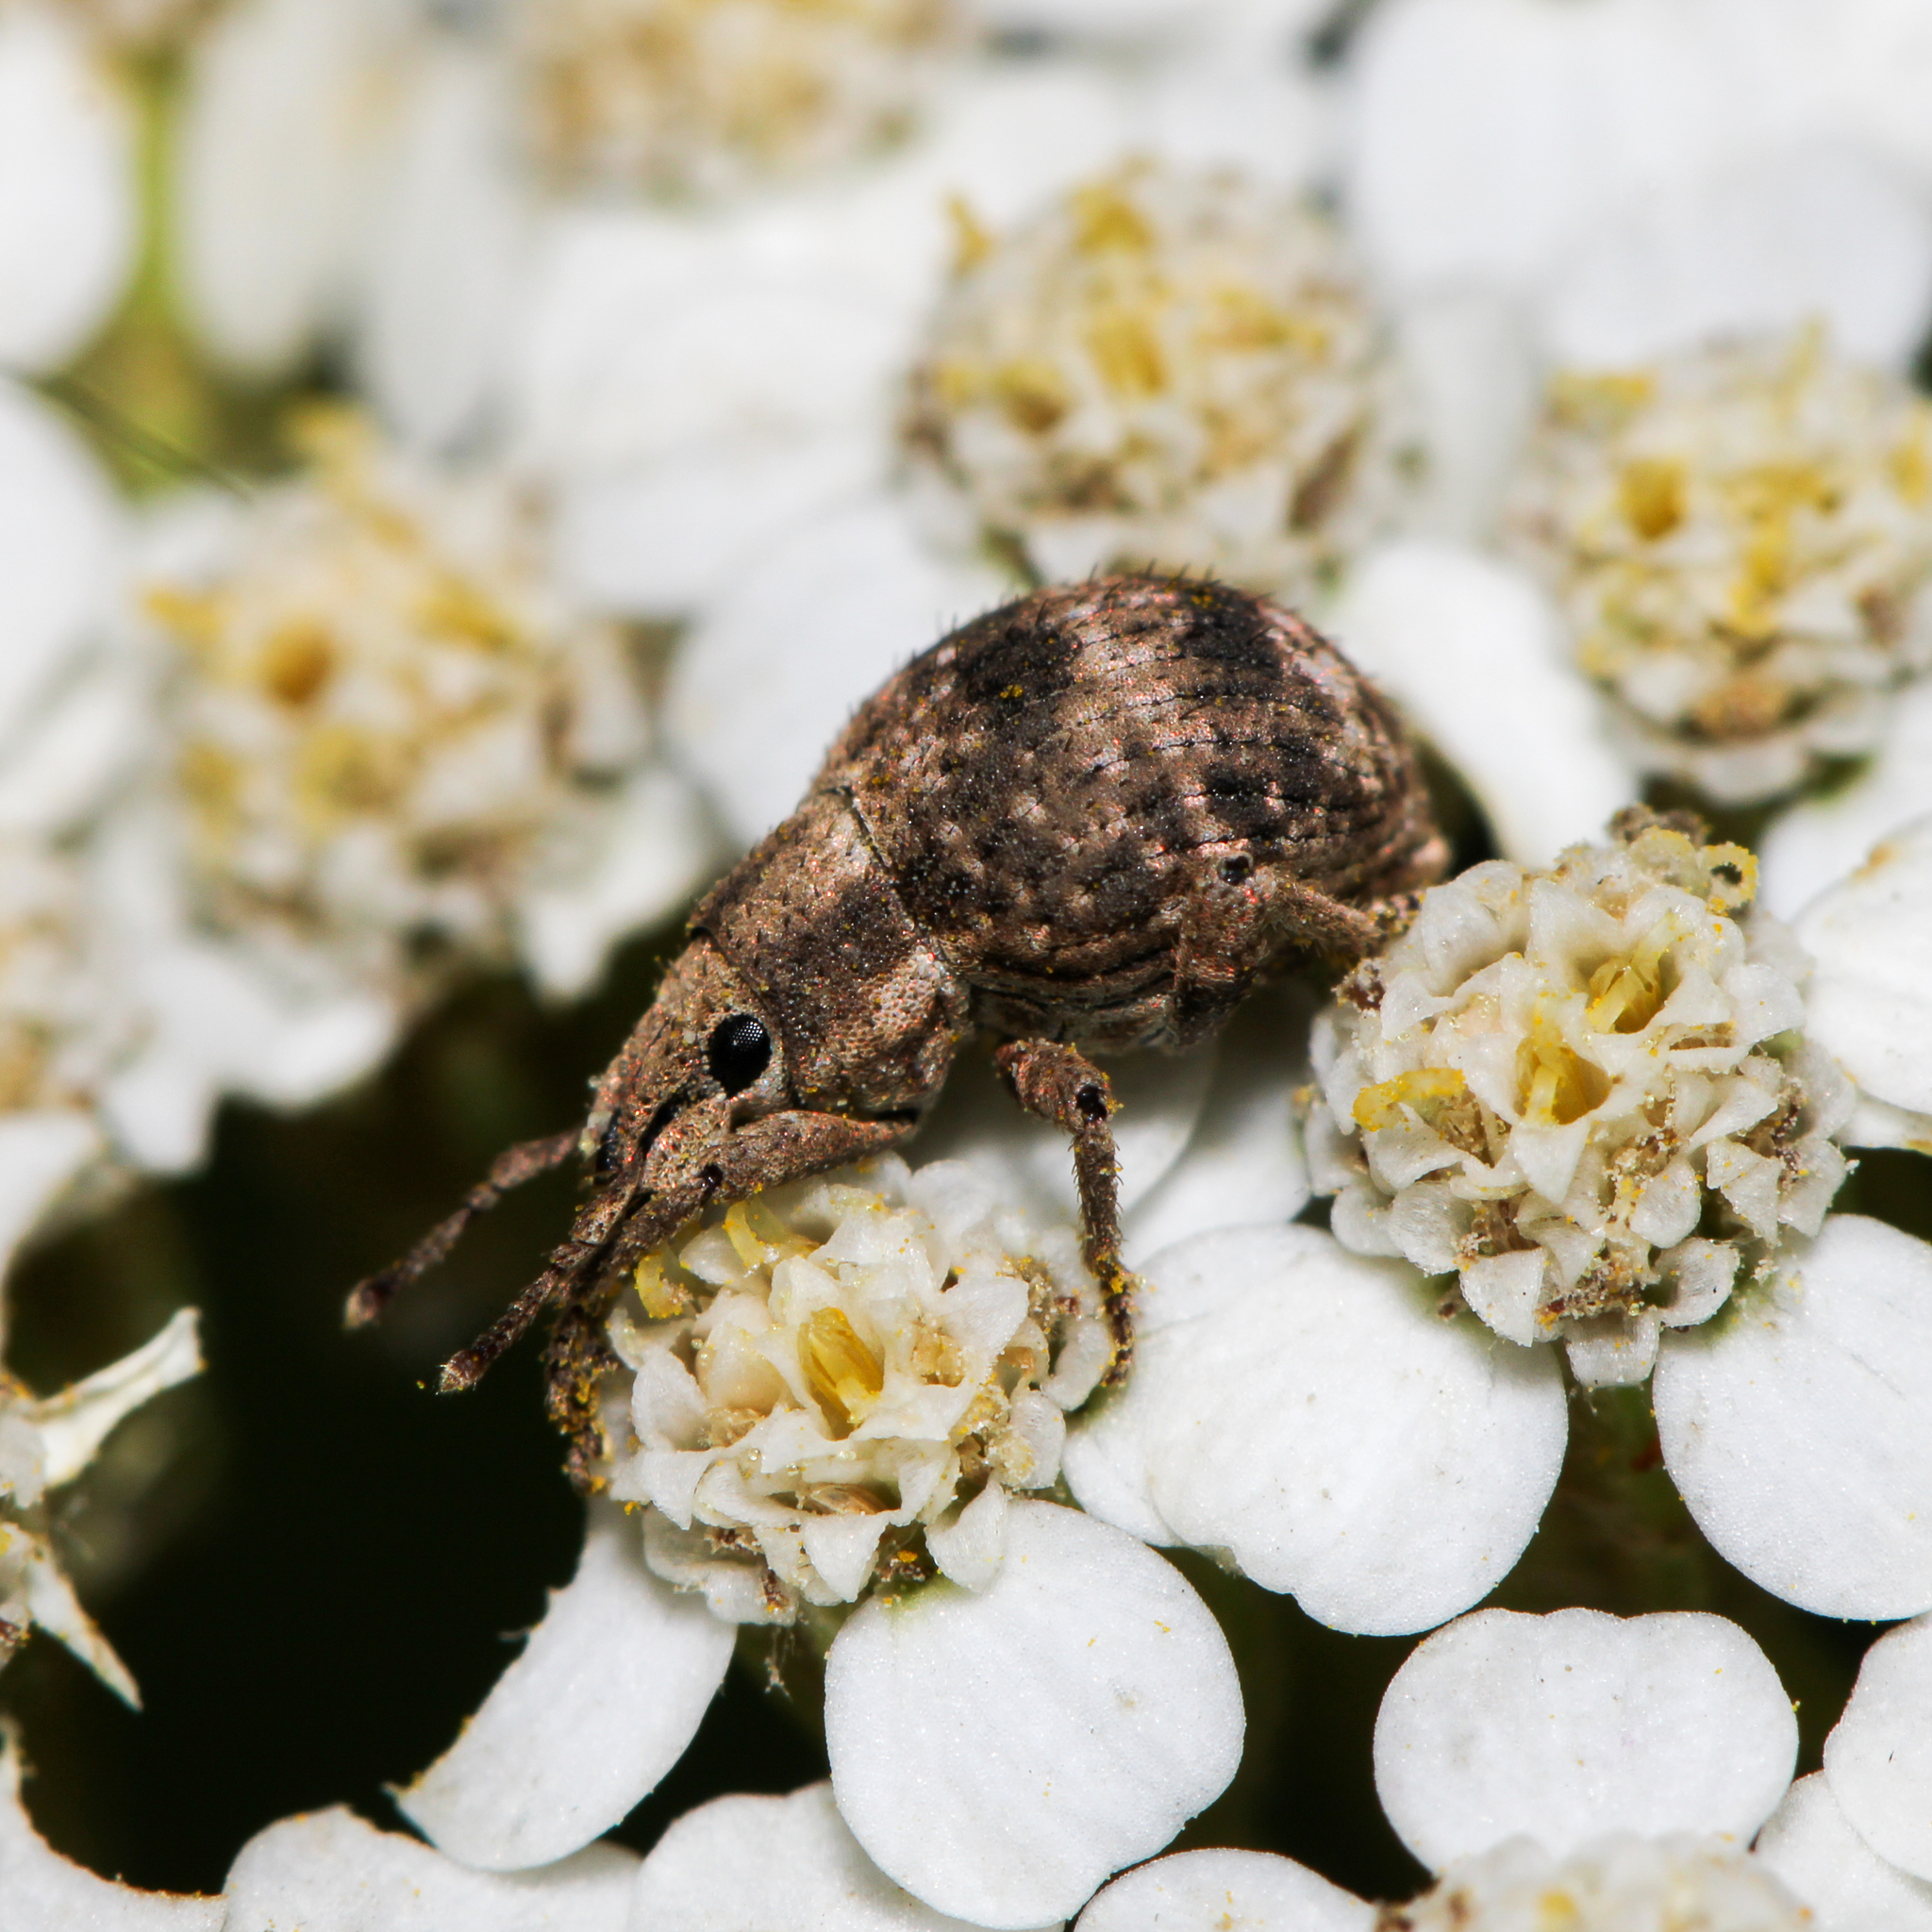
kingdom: Animalia
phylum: Arthropoda
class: Insecta
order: Coleoptera
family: Curculionidae
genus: Pseudocneorhinus
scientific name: Pseudocneorhinus bifasciatus
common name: Two-banded japanese weevil
